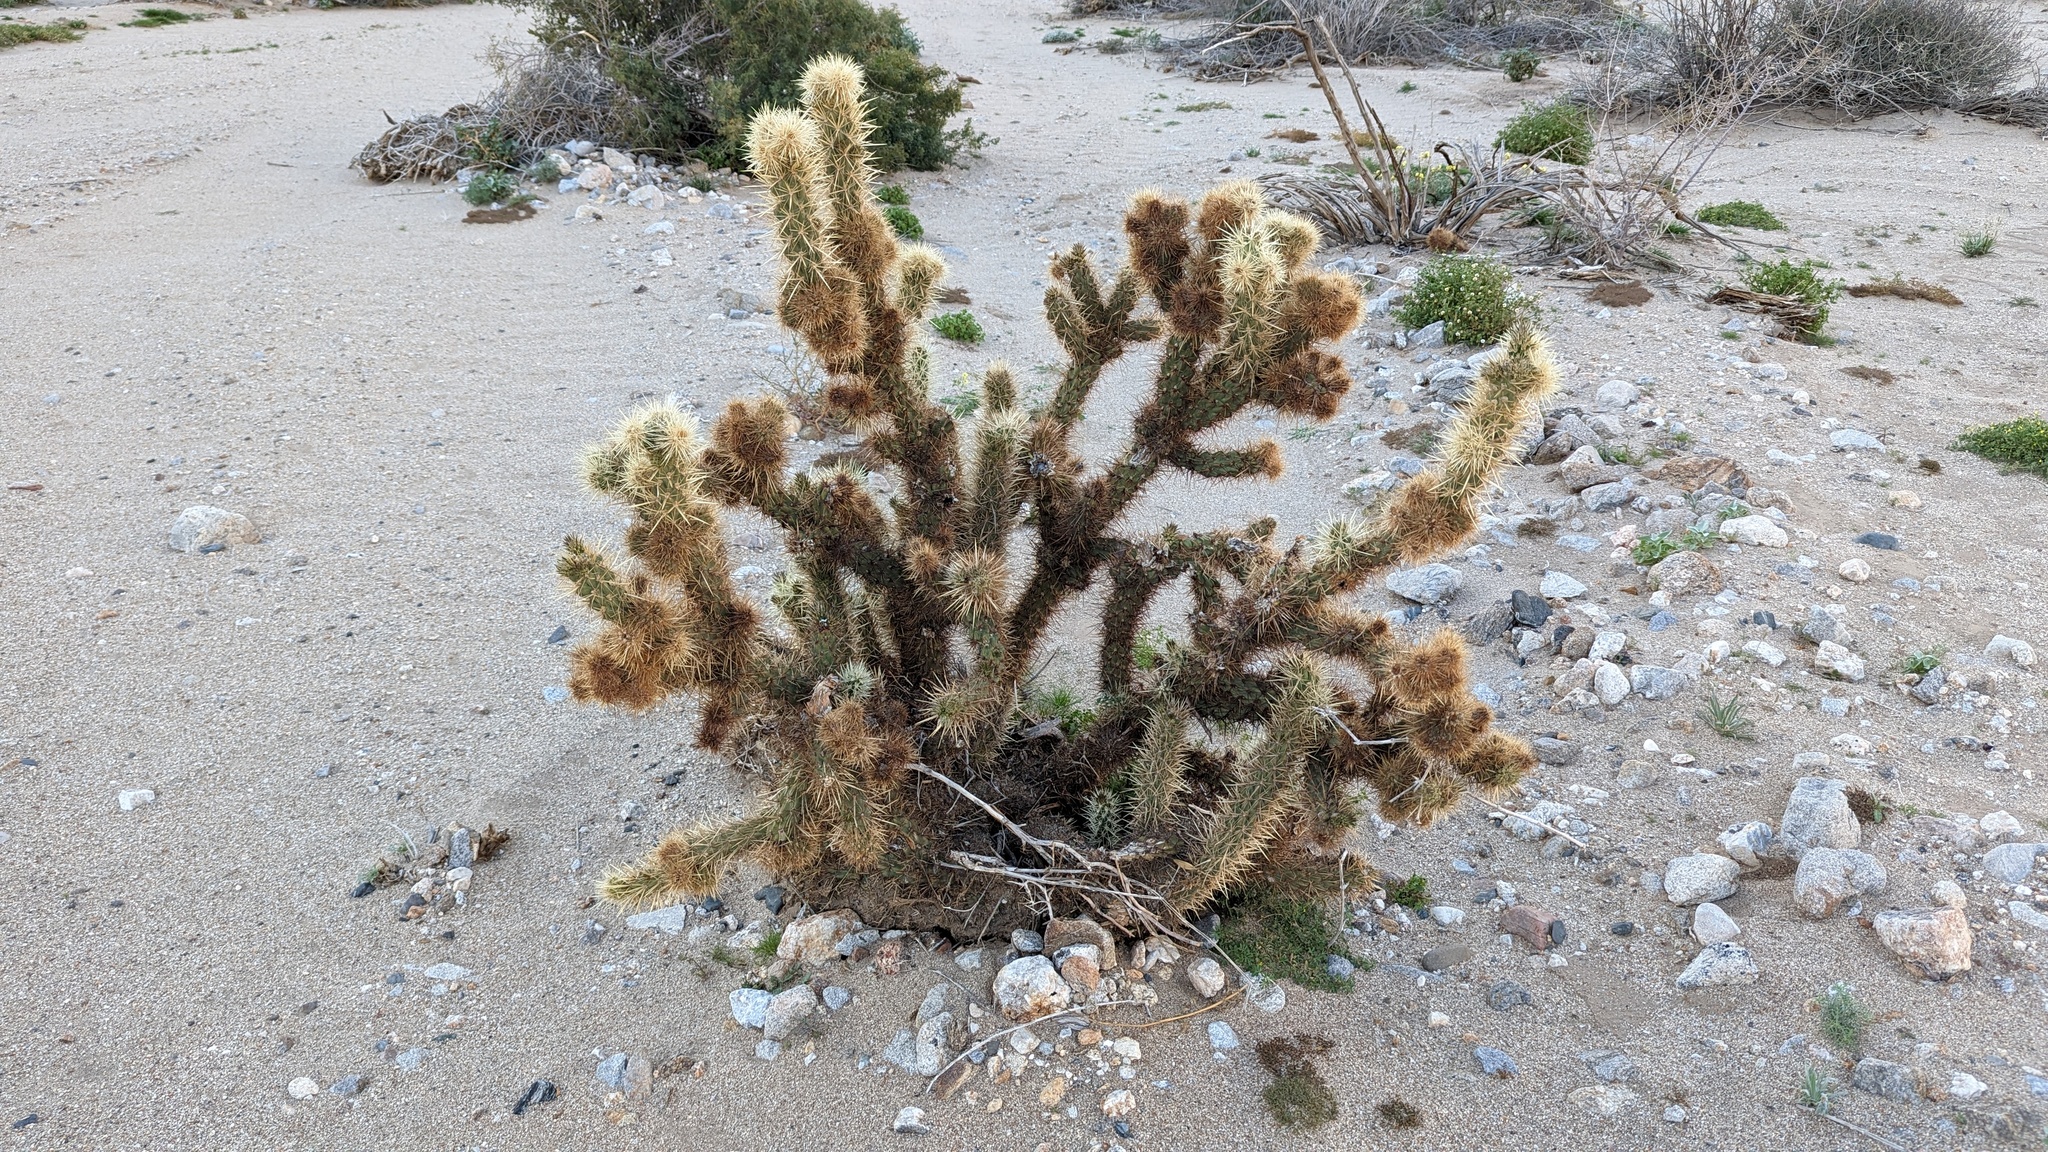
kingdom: Plantae
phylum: Tracheophyta
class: Magnoliopsida
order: Caryophyllales
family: Cactaceae
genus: Cylindropuntia
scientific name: Cylindropuntia wolfii
